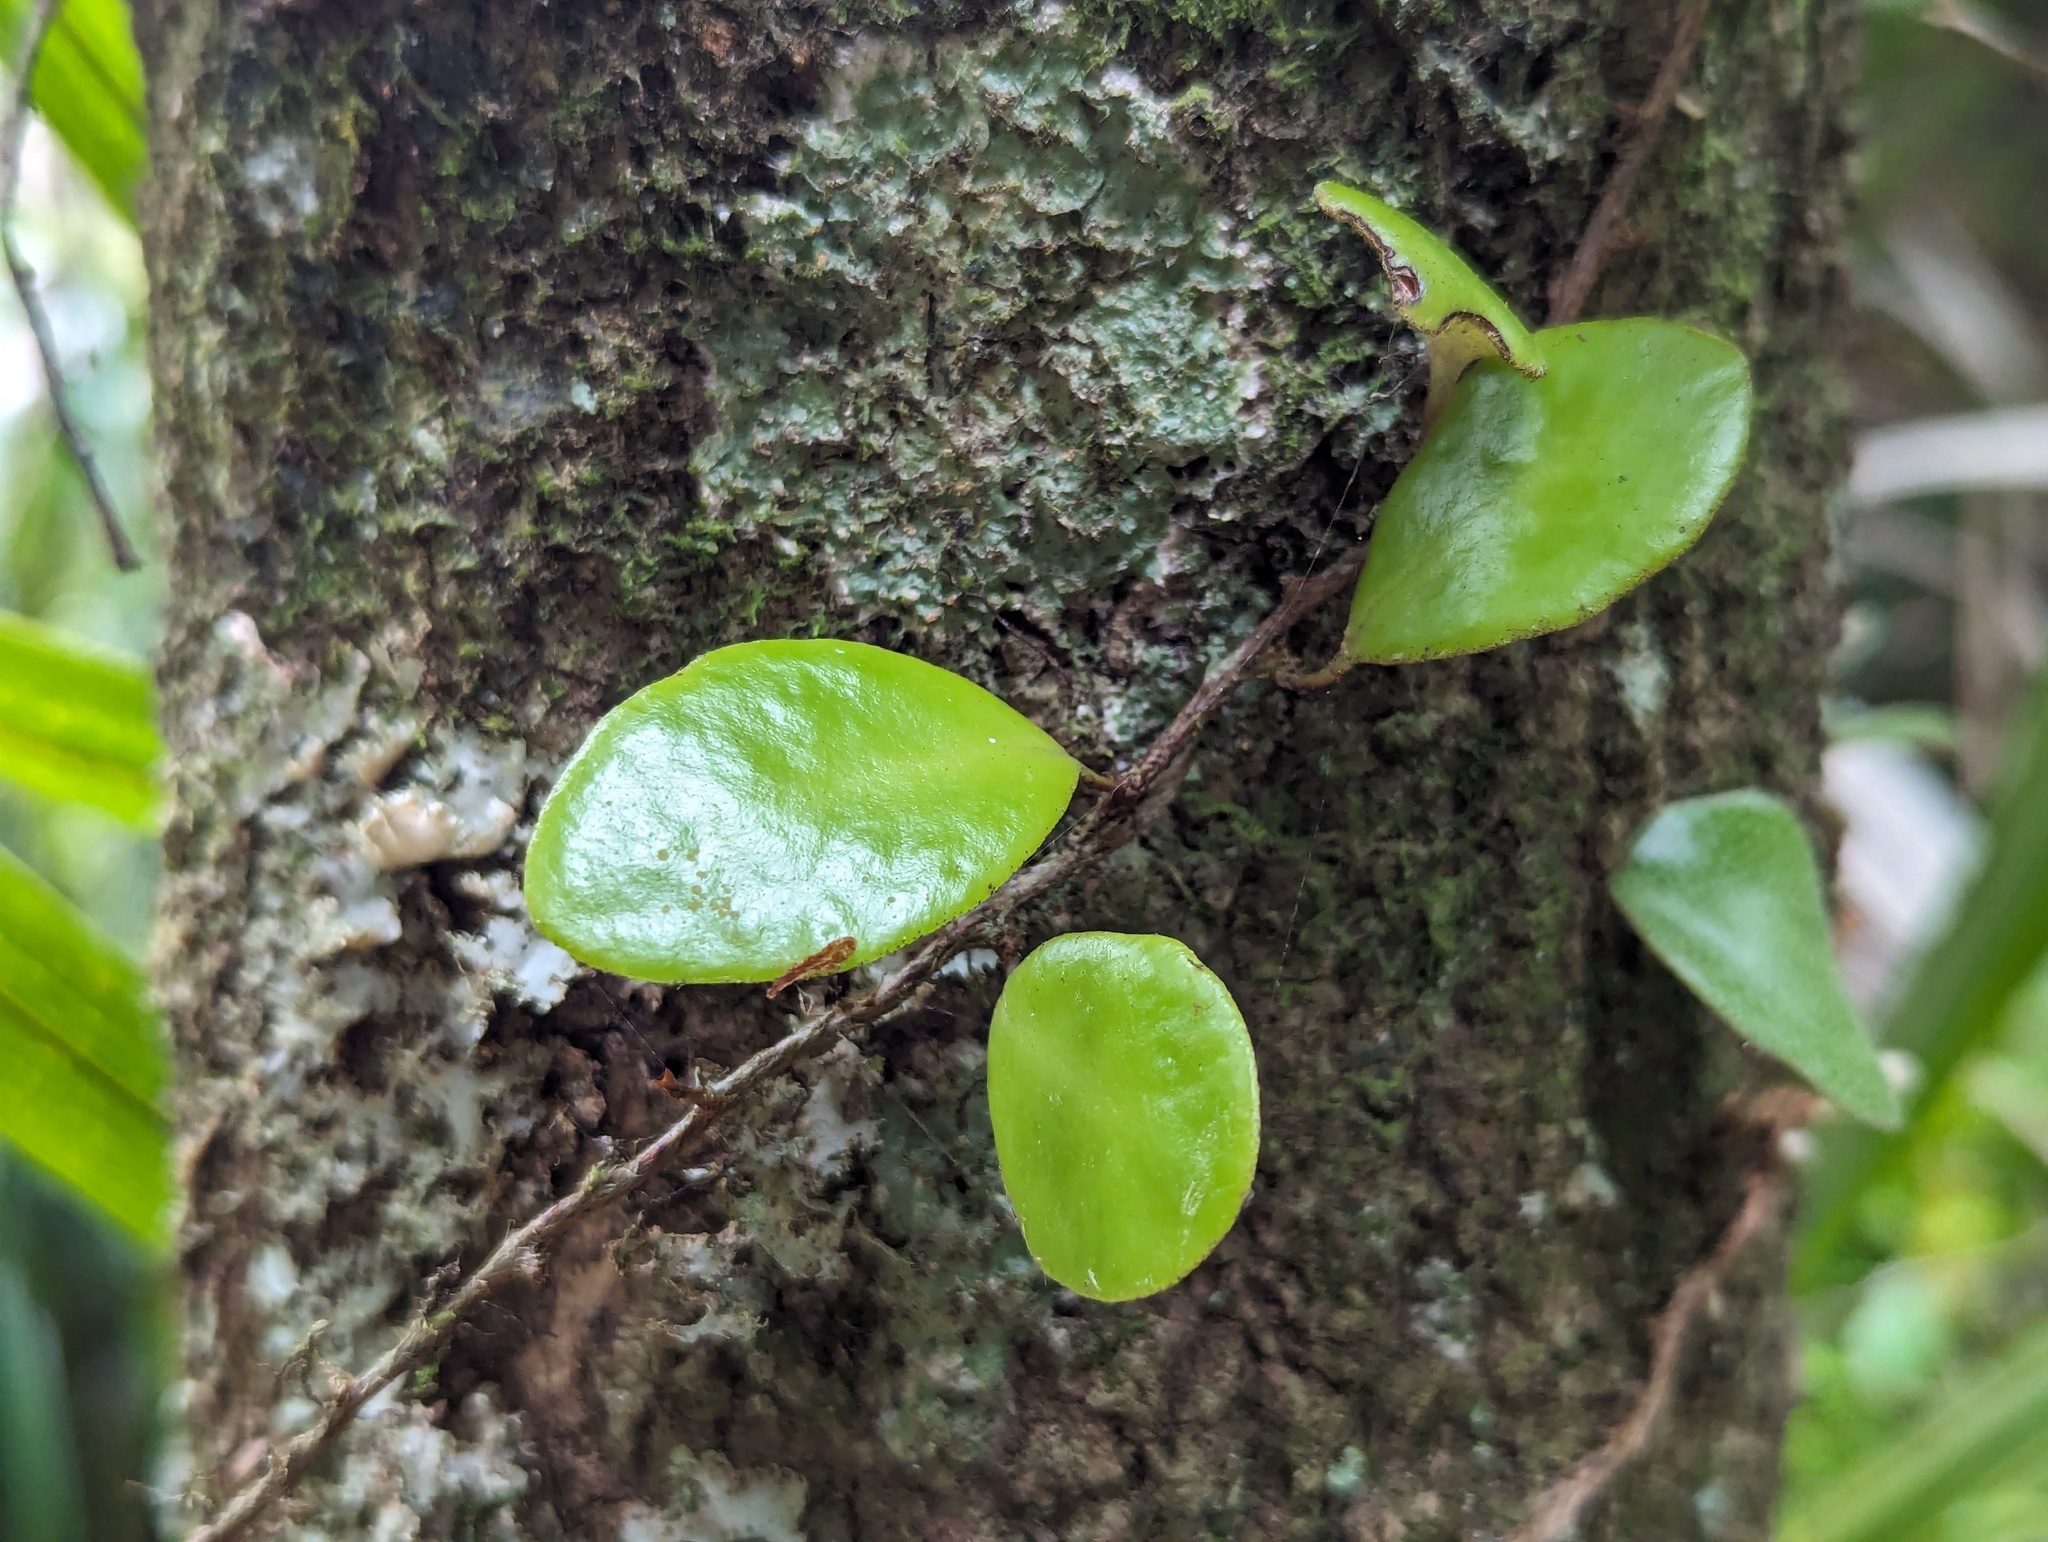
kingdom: Plantae
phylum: Tracheophyta
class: Polypodiopsida
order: Polypodiales
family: Polypodiaceae
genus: Pyrrosia
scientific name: Pyrrosia eleagnifolia
